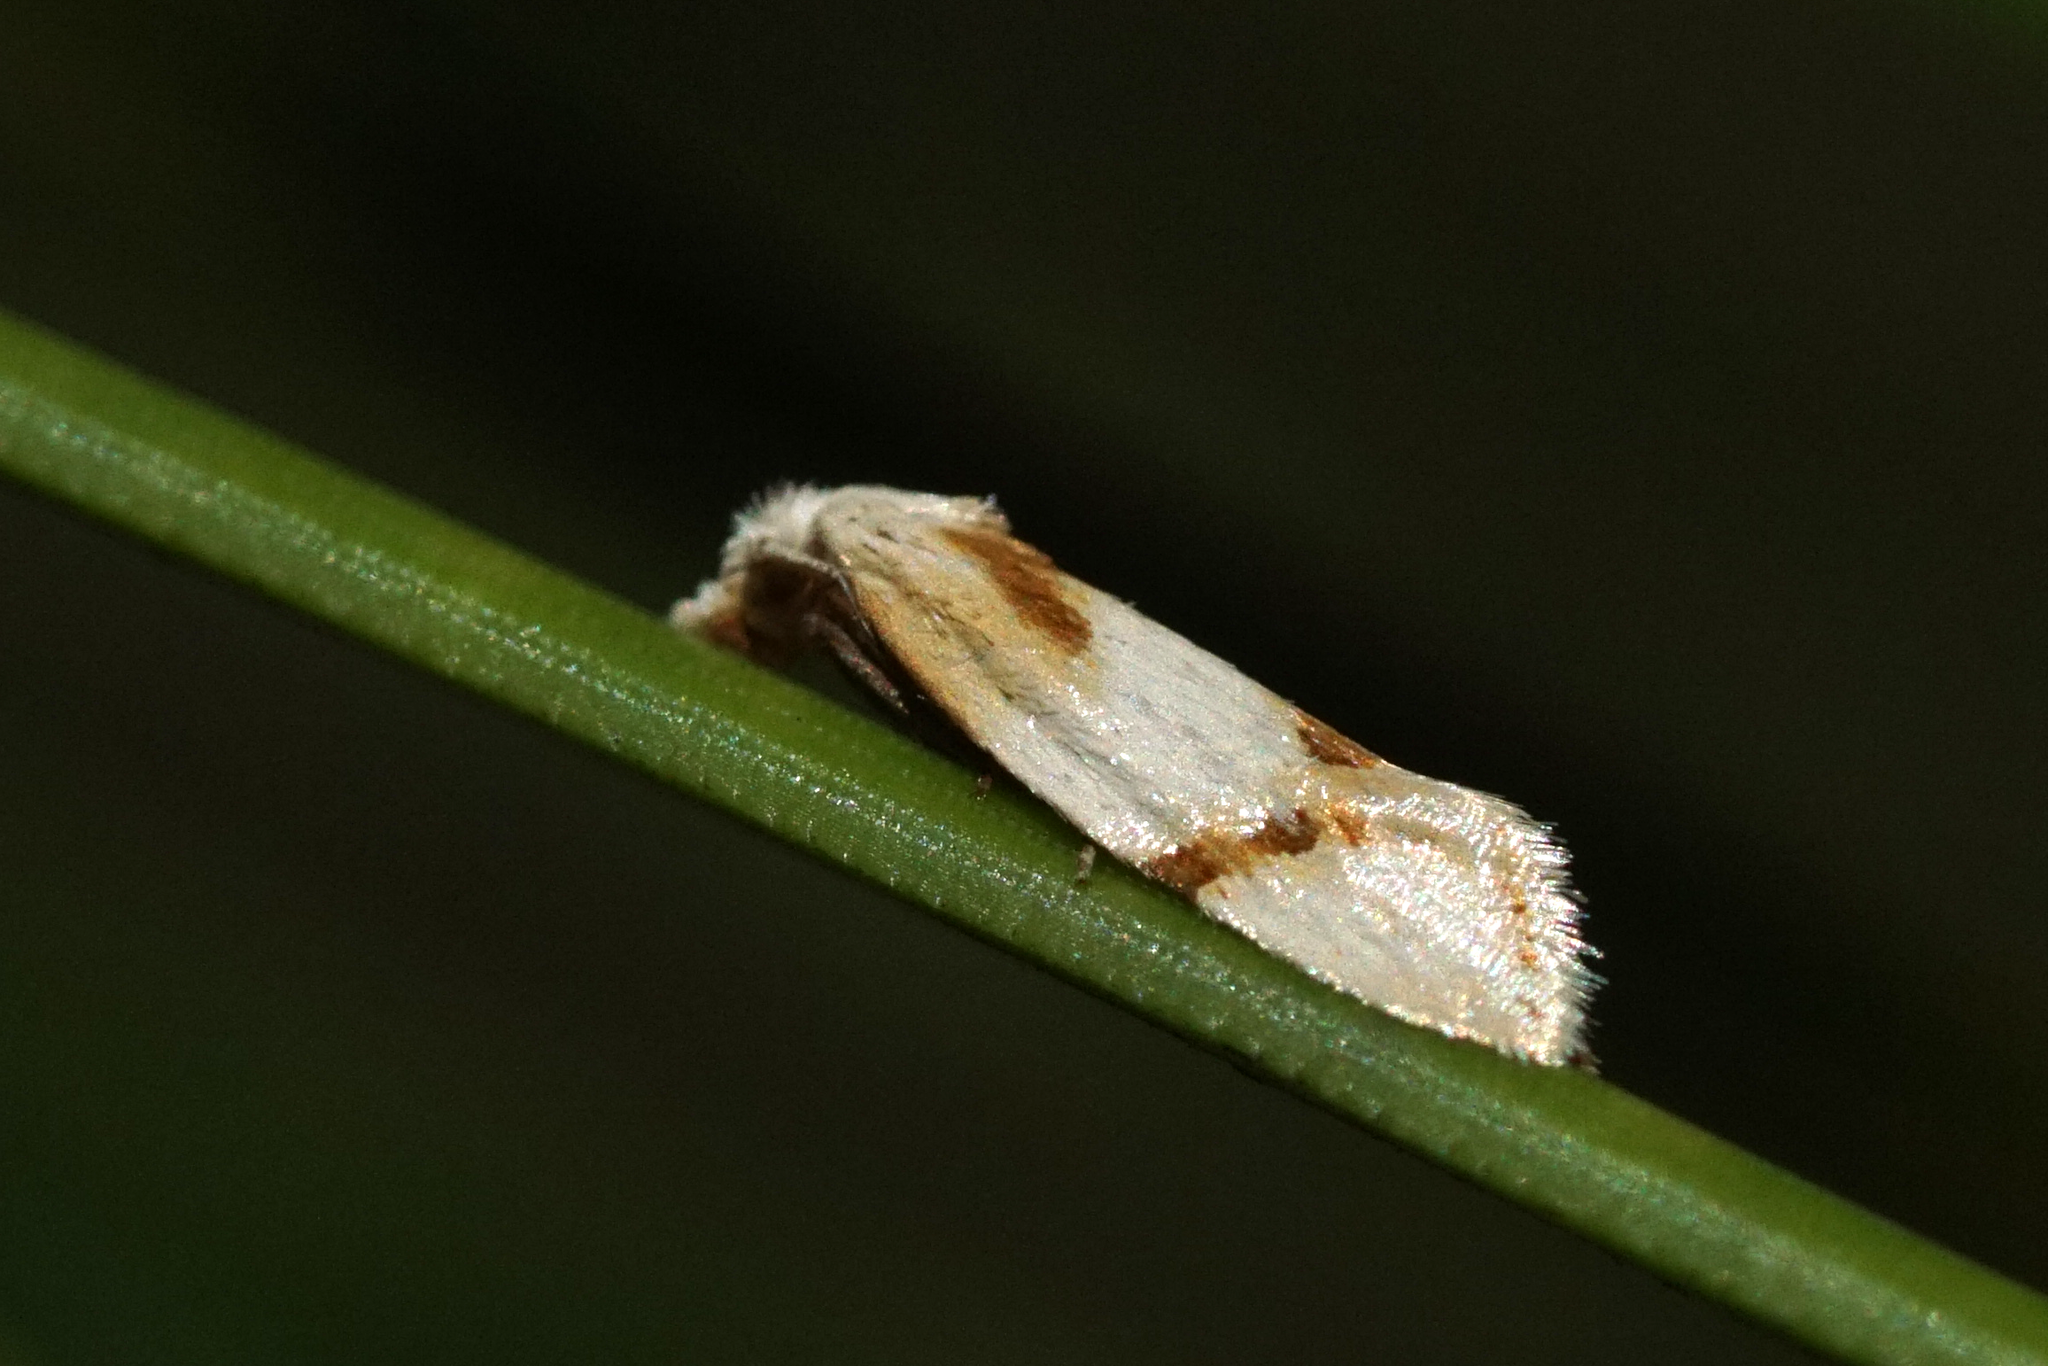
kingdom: Animalia
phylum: Arthropoda
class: Insecta
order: Lepidoptera
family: Tortricidae
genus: Aethes
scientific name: Aethes seriatana
